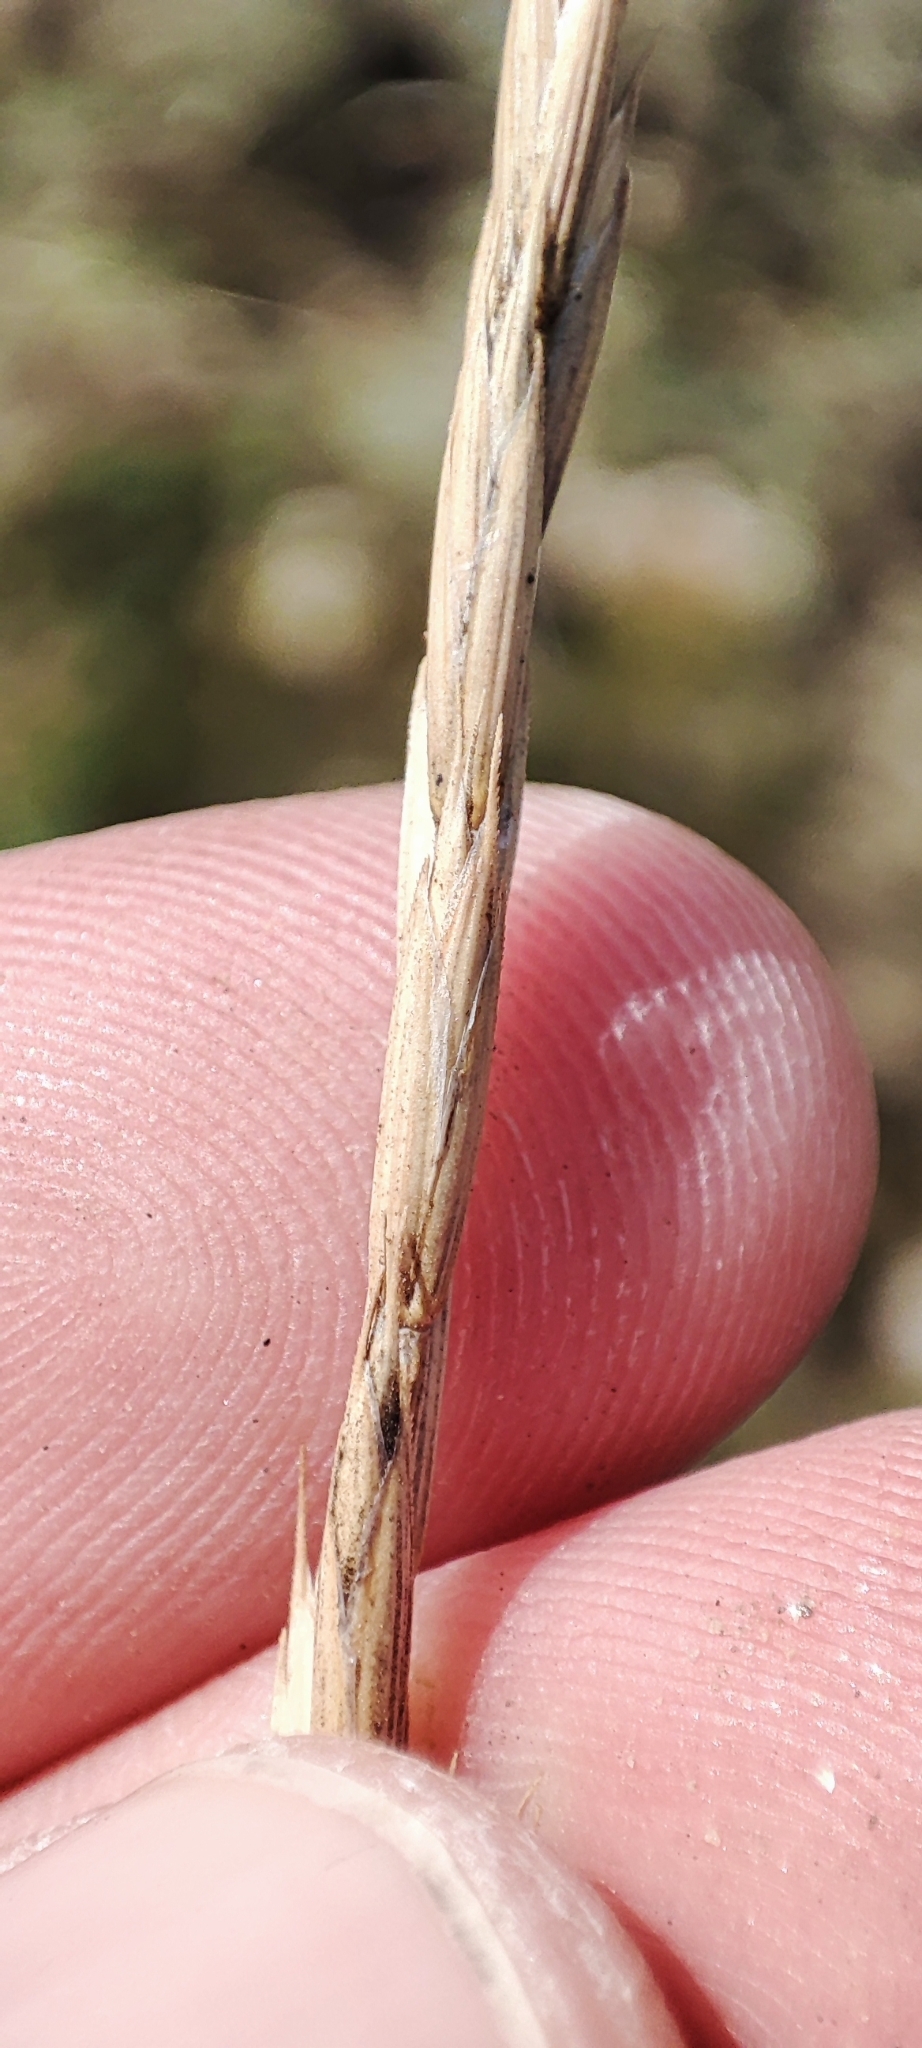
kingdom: Plantae
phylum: Tracheophyta
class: Liliopsida
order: Poales
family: Poaceae
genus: Elymus
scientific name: Elymus repens
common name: Quackgrass
